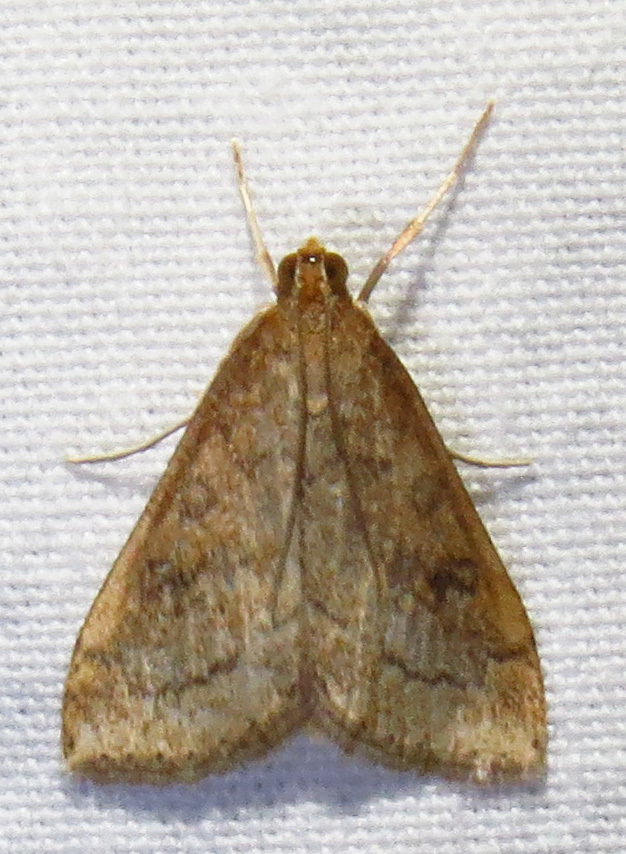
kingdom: Animalia
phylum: Arthropoda
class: Insecta
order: Lepidoptera
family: Crambidae
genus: Udea
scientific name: Udea rubigalis
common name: Celery leaftier moth
